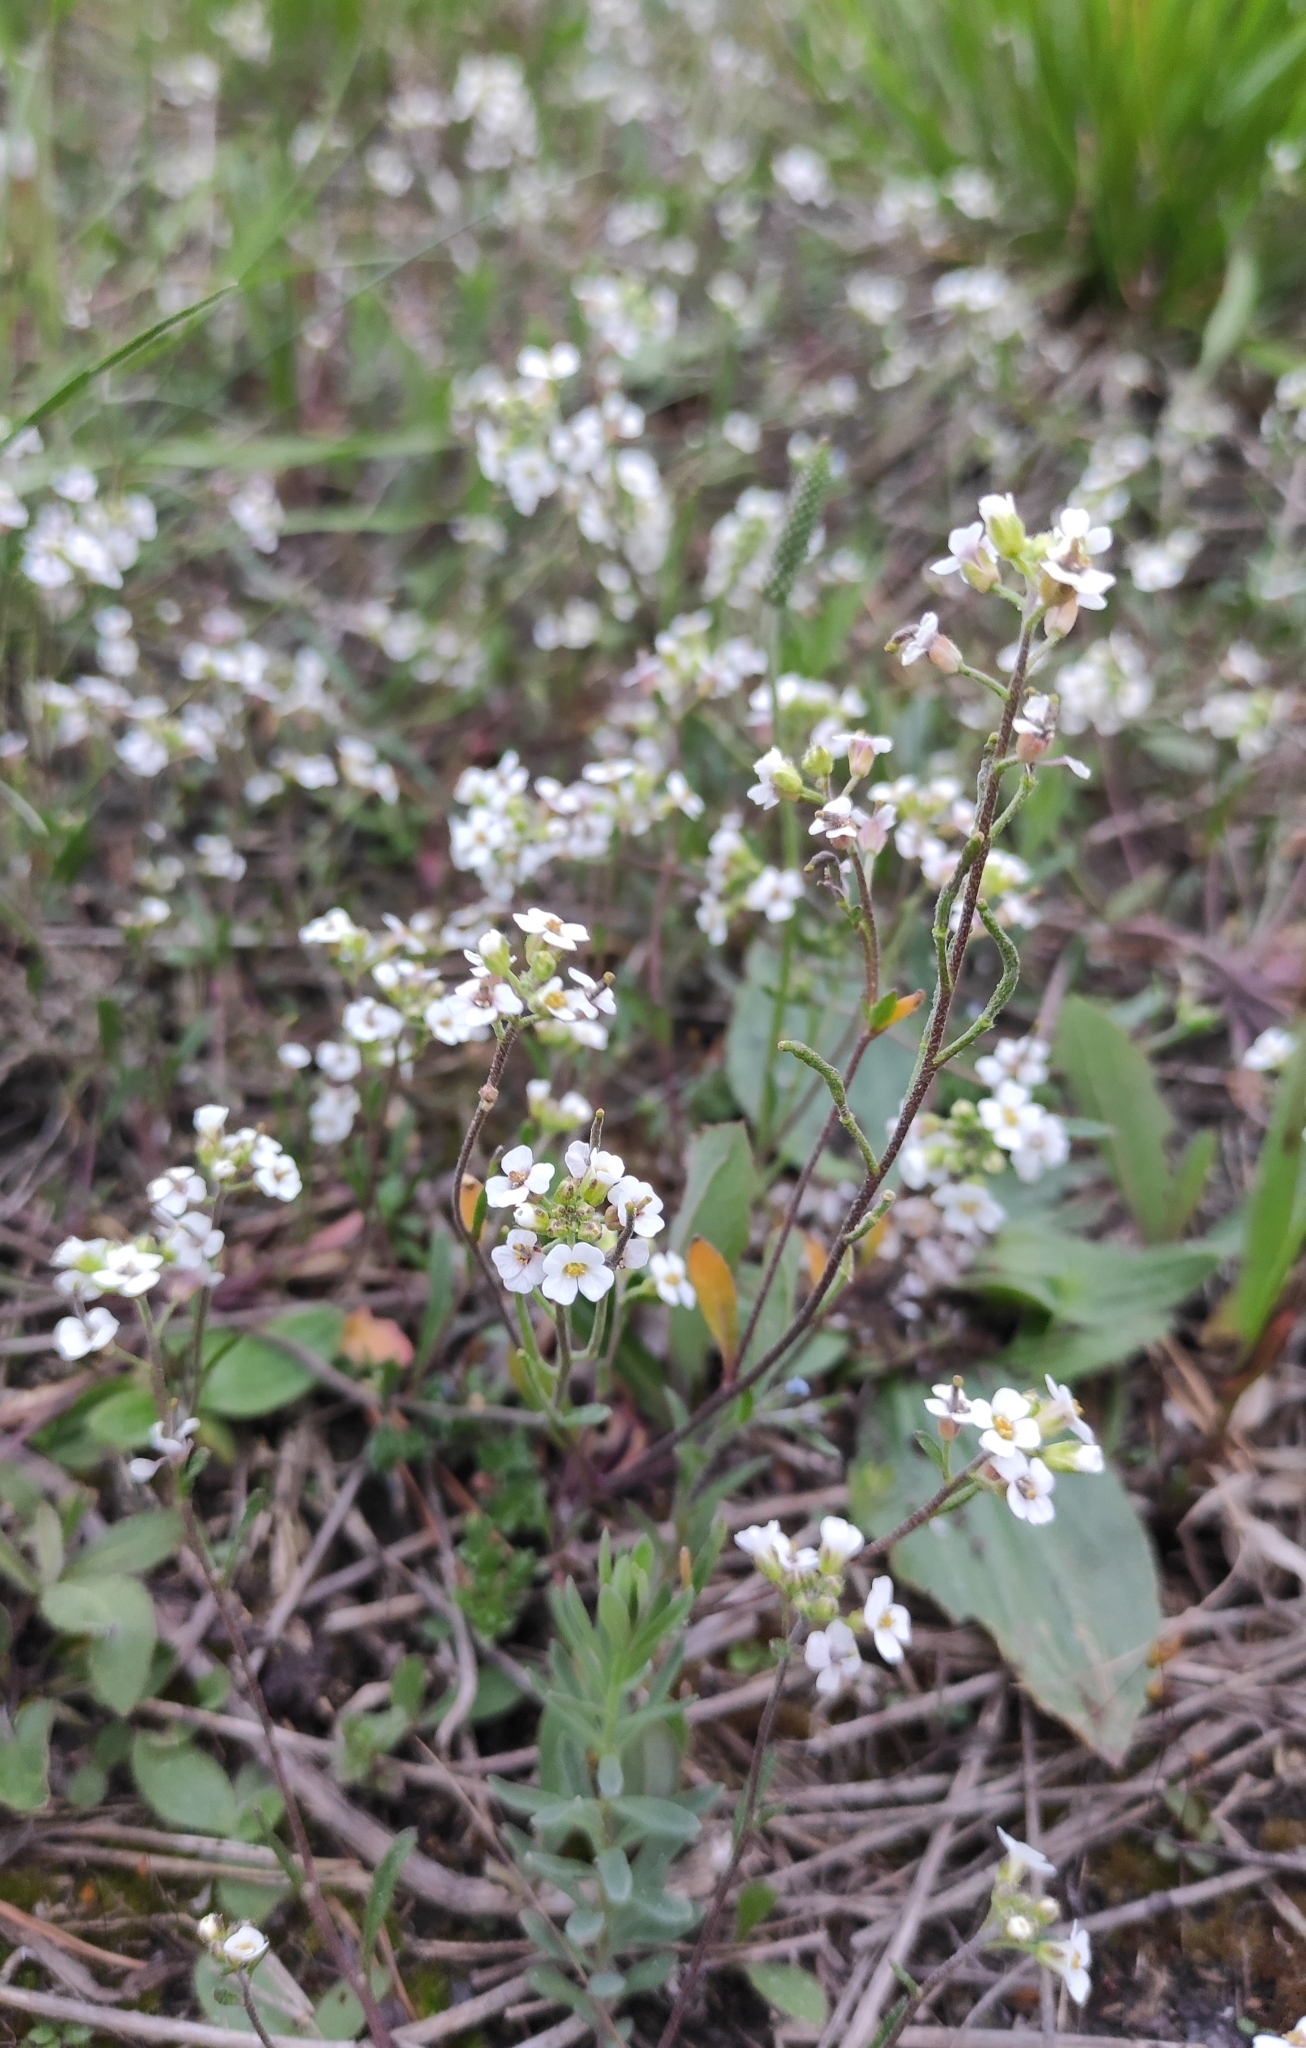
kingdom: Plantae
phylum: Tracheophyta
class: Magnoliopsida
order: Brassicales
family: Brassicaceae
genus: Braya
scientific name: Braya humilis
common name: Alpine northern rockcress
